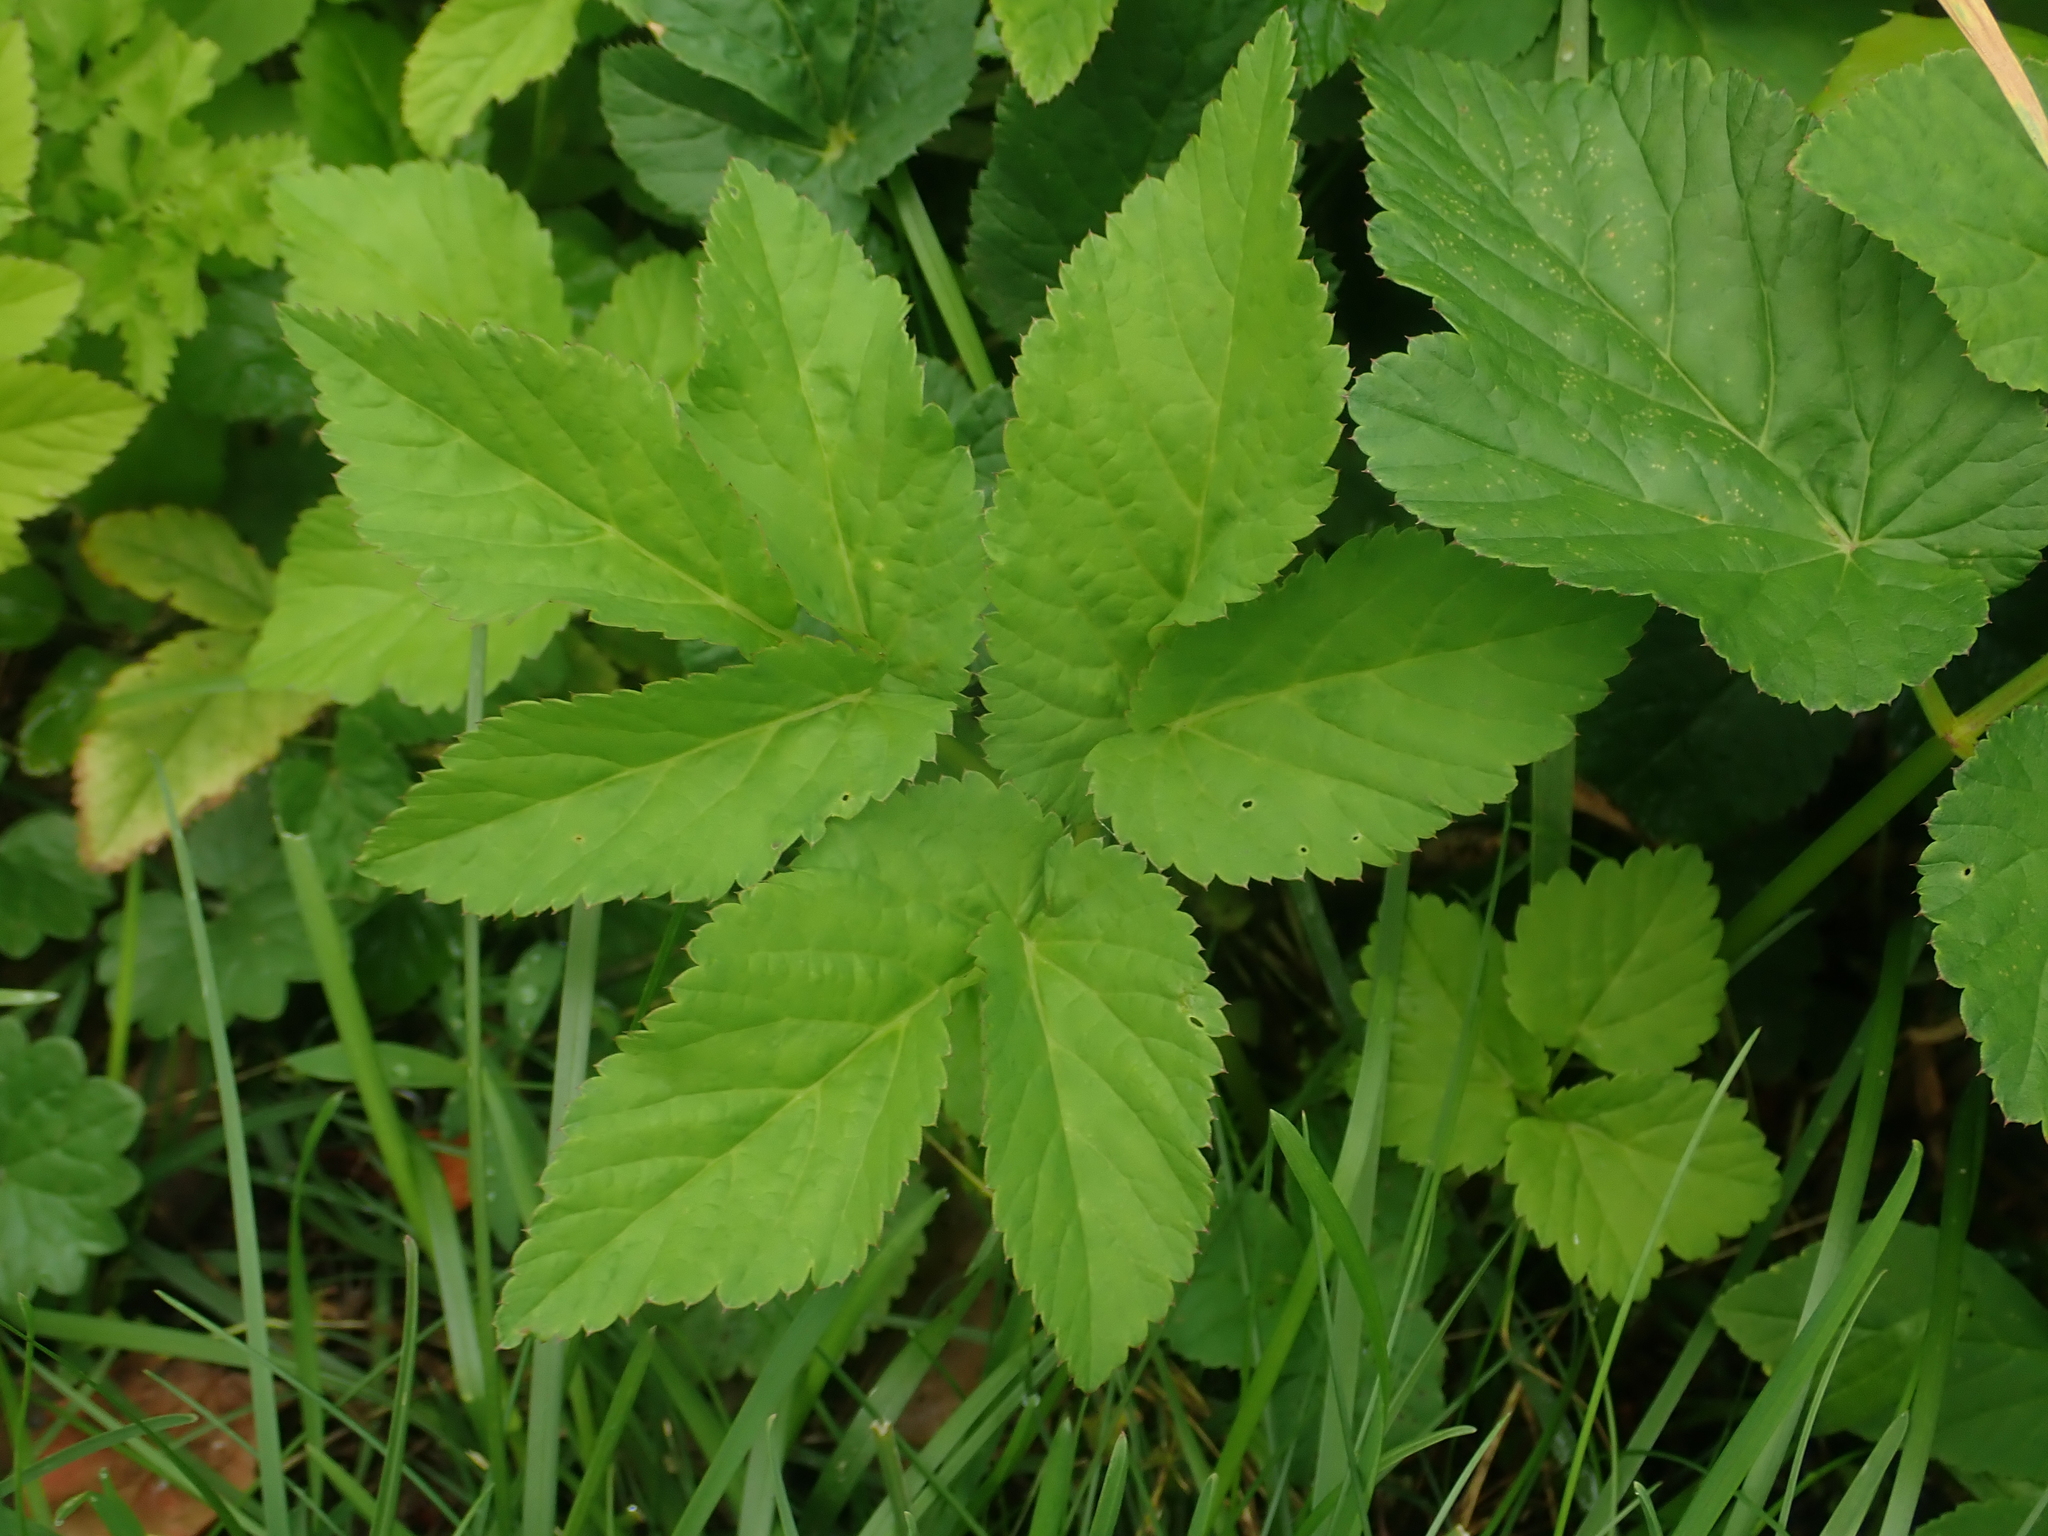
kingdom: Plantae
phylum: Tracheophyta
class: Magnoliopsida
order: Apiales
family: Apiaceae
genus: Aegopodium
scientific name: Aegopodium podagraria
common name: Ground-elder
